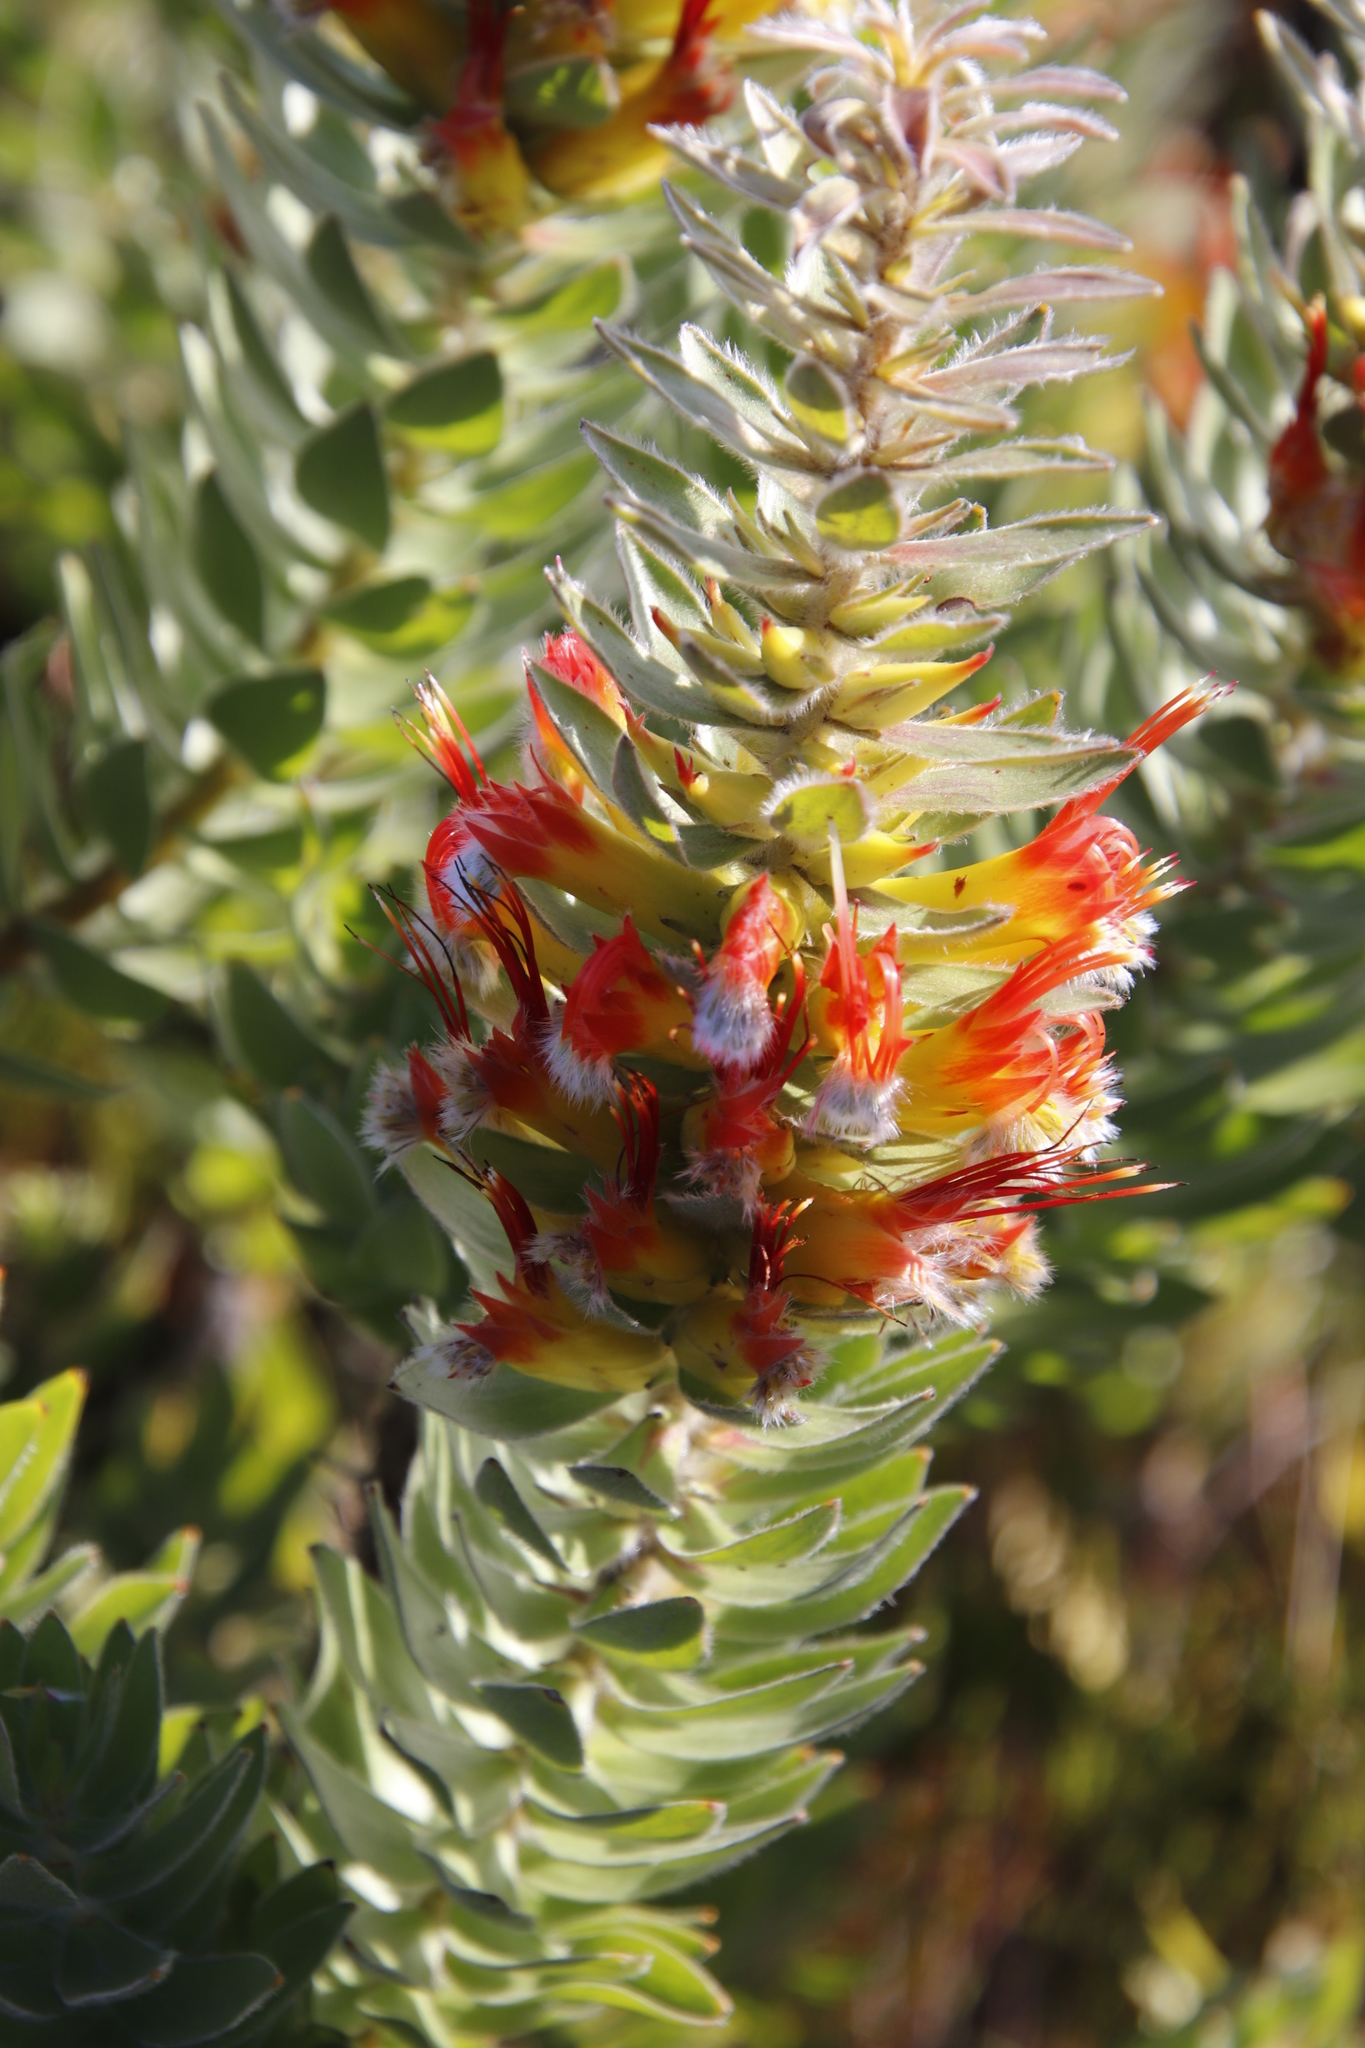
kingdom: Plantae
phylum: Tracheophyta
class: Magnoliopsida
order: Proteales
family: Proteaceae
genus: Mimetes
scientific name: Mimetes hirtus
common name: Marsh pagoda
